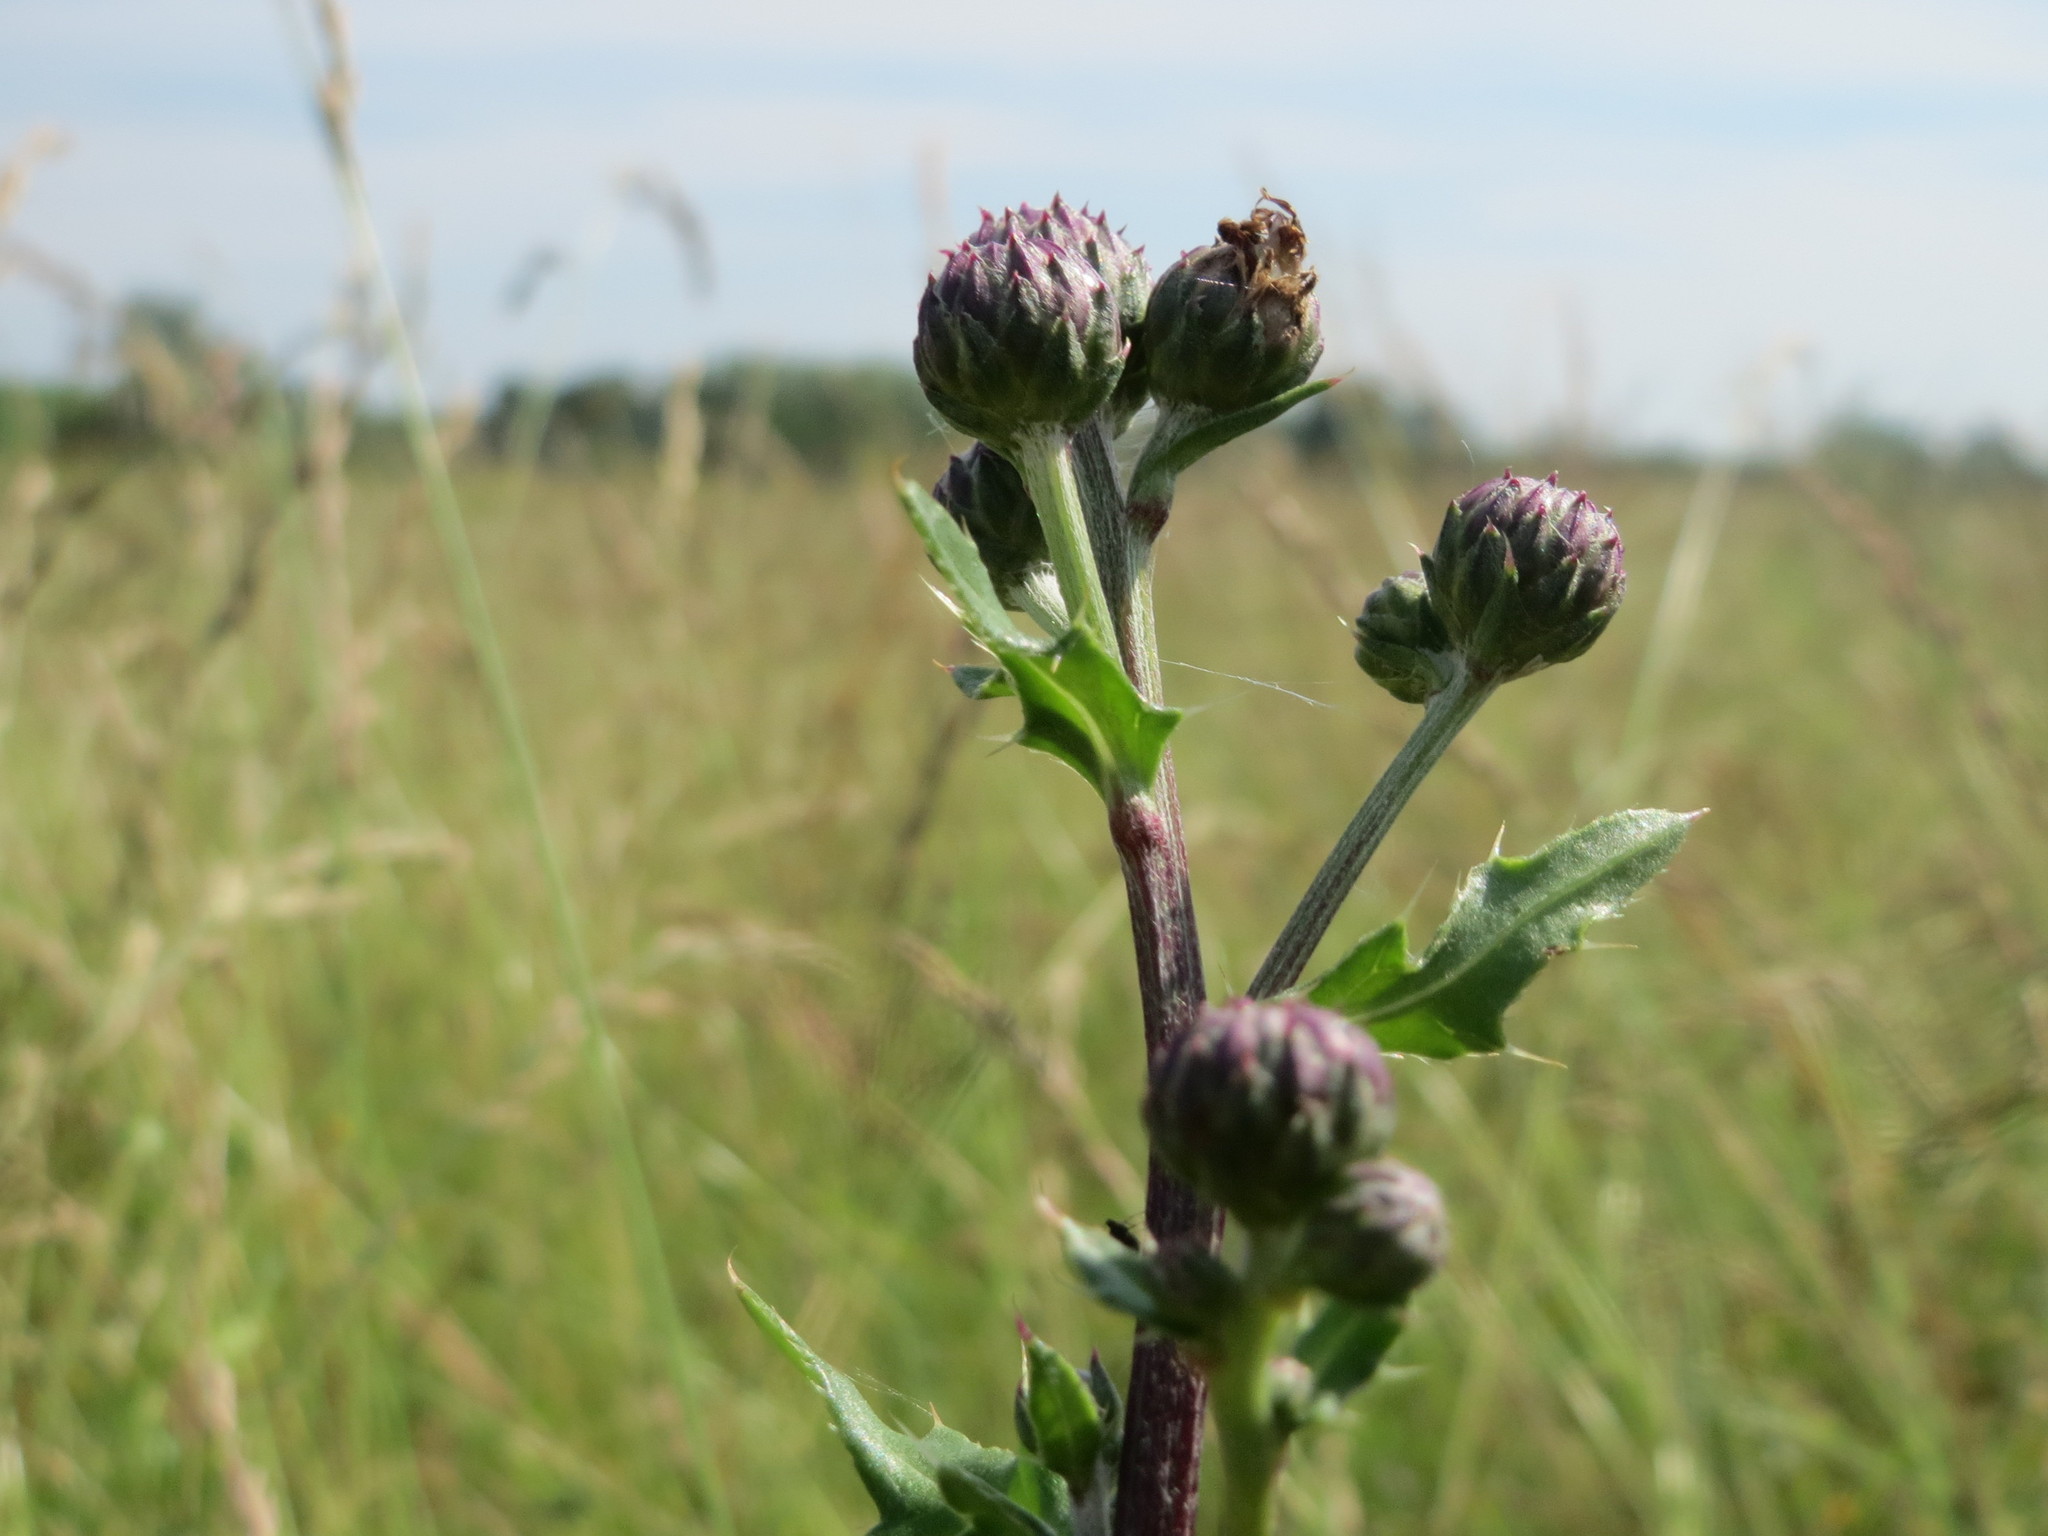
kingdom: Plantae
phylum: Tracheophyta
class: Magnoliopsida
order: Asterales
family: Asteraceae
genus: Cirsium
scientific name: Cirsium arvense
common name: Creeping thistle
